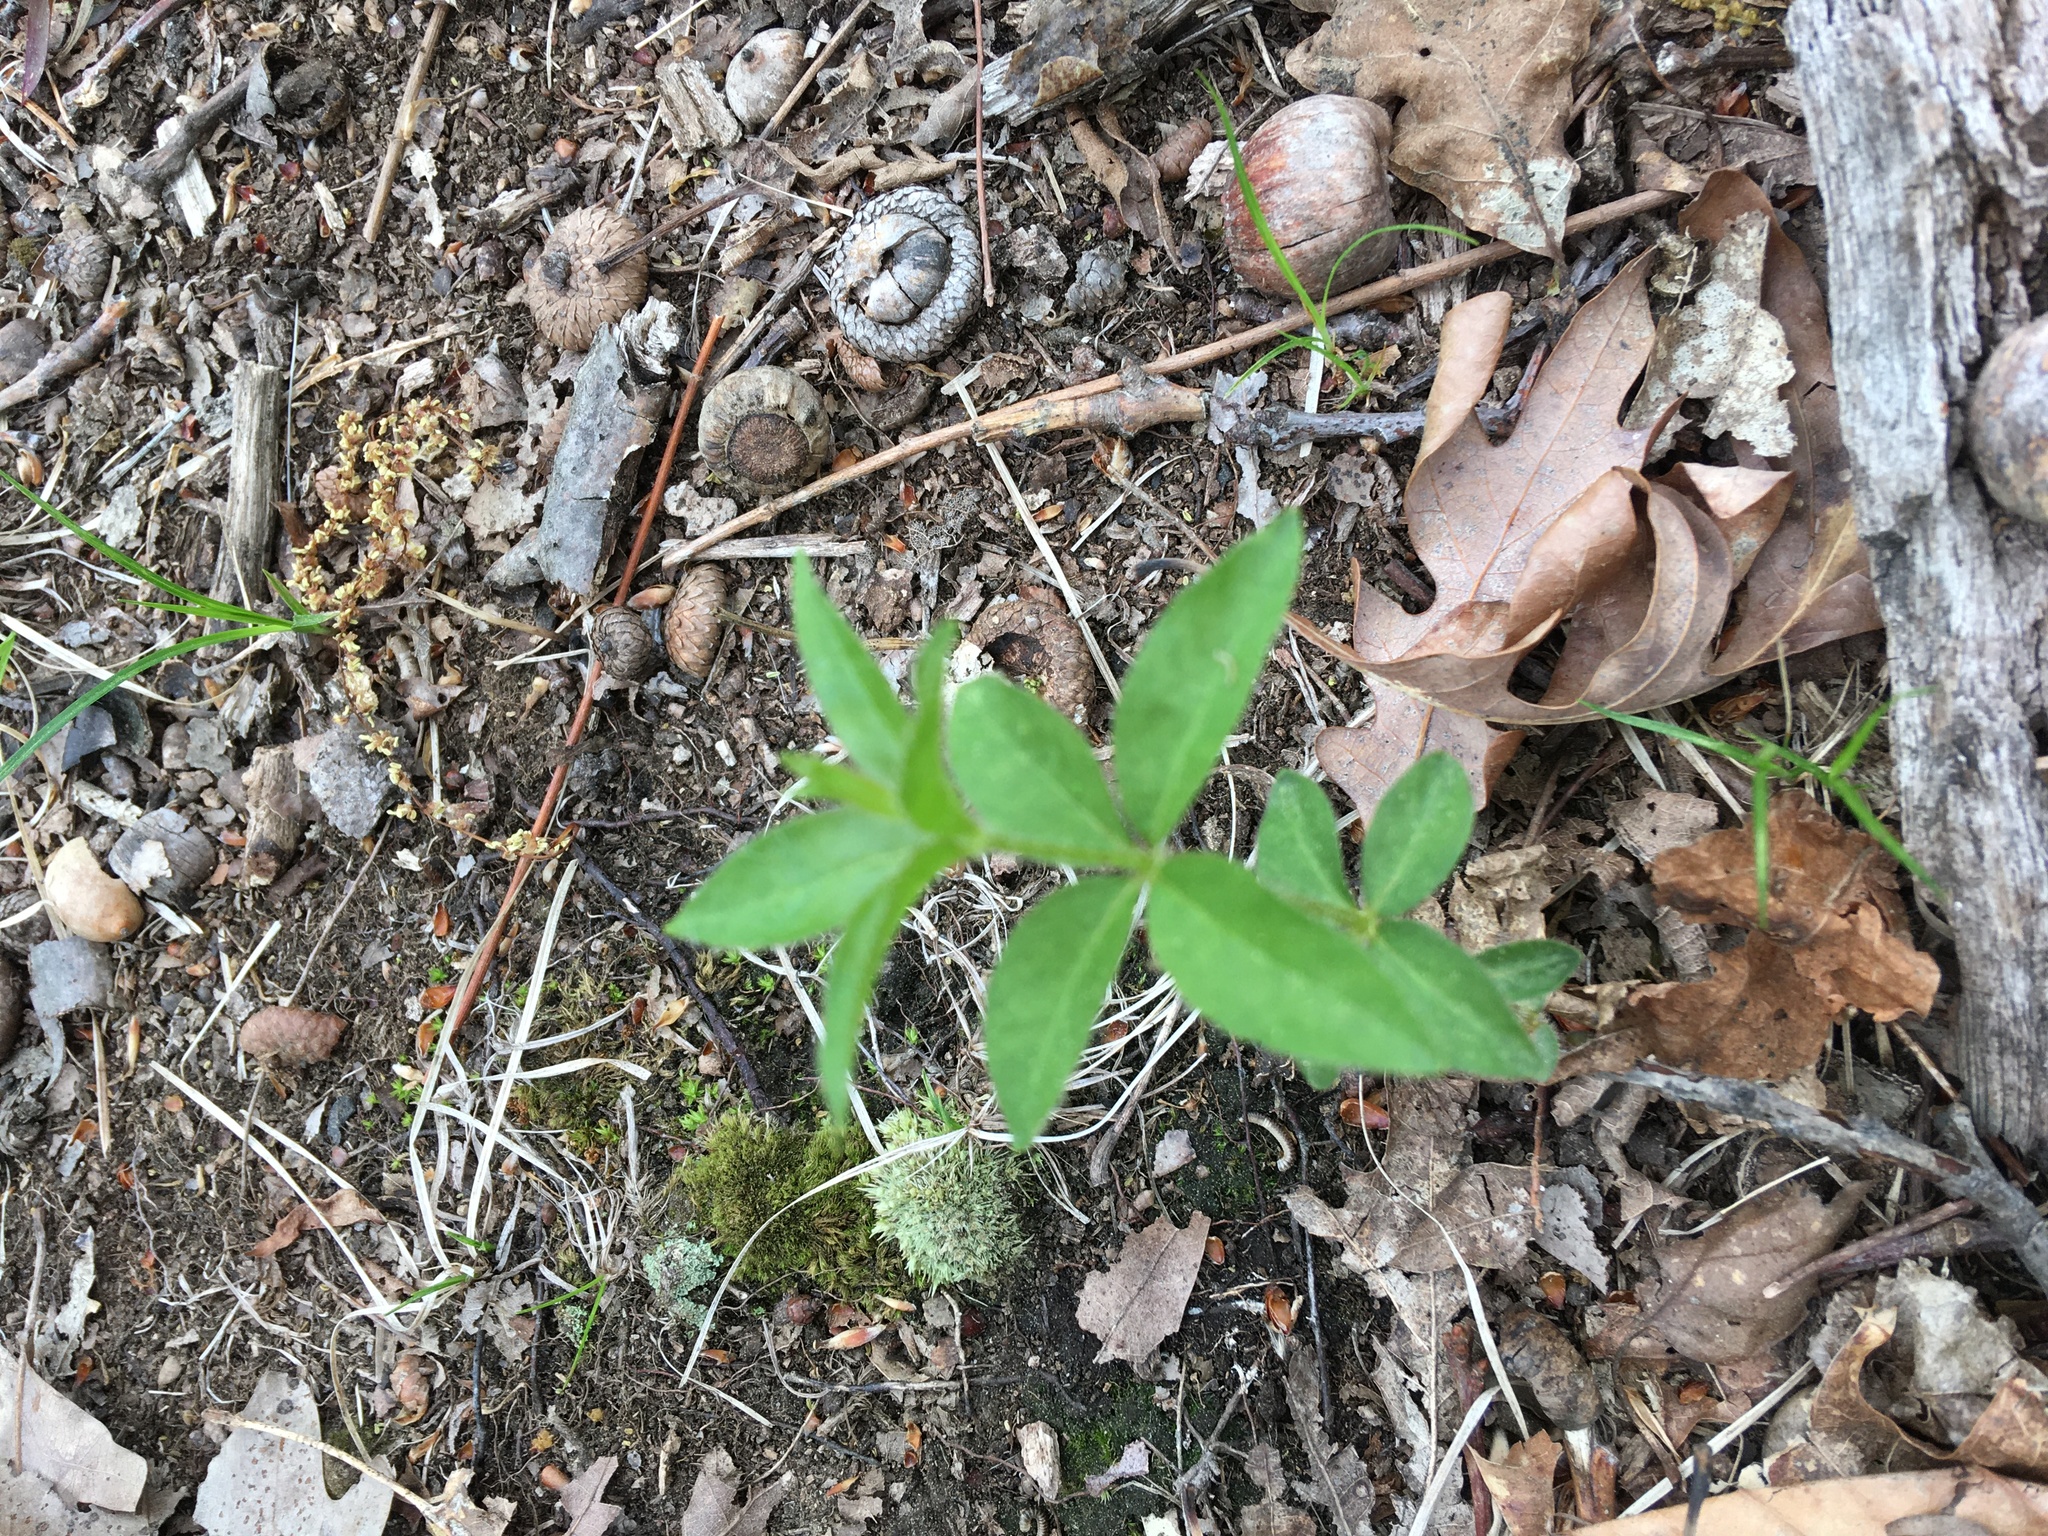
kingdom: Plantae
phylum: Tracheophyta
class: Magnoliopsida
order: Ericales
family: Primulaceae
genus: Lysimachia
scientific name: Lysimachia quadrifolia
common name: Whorled loosestrife
